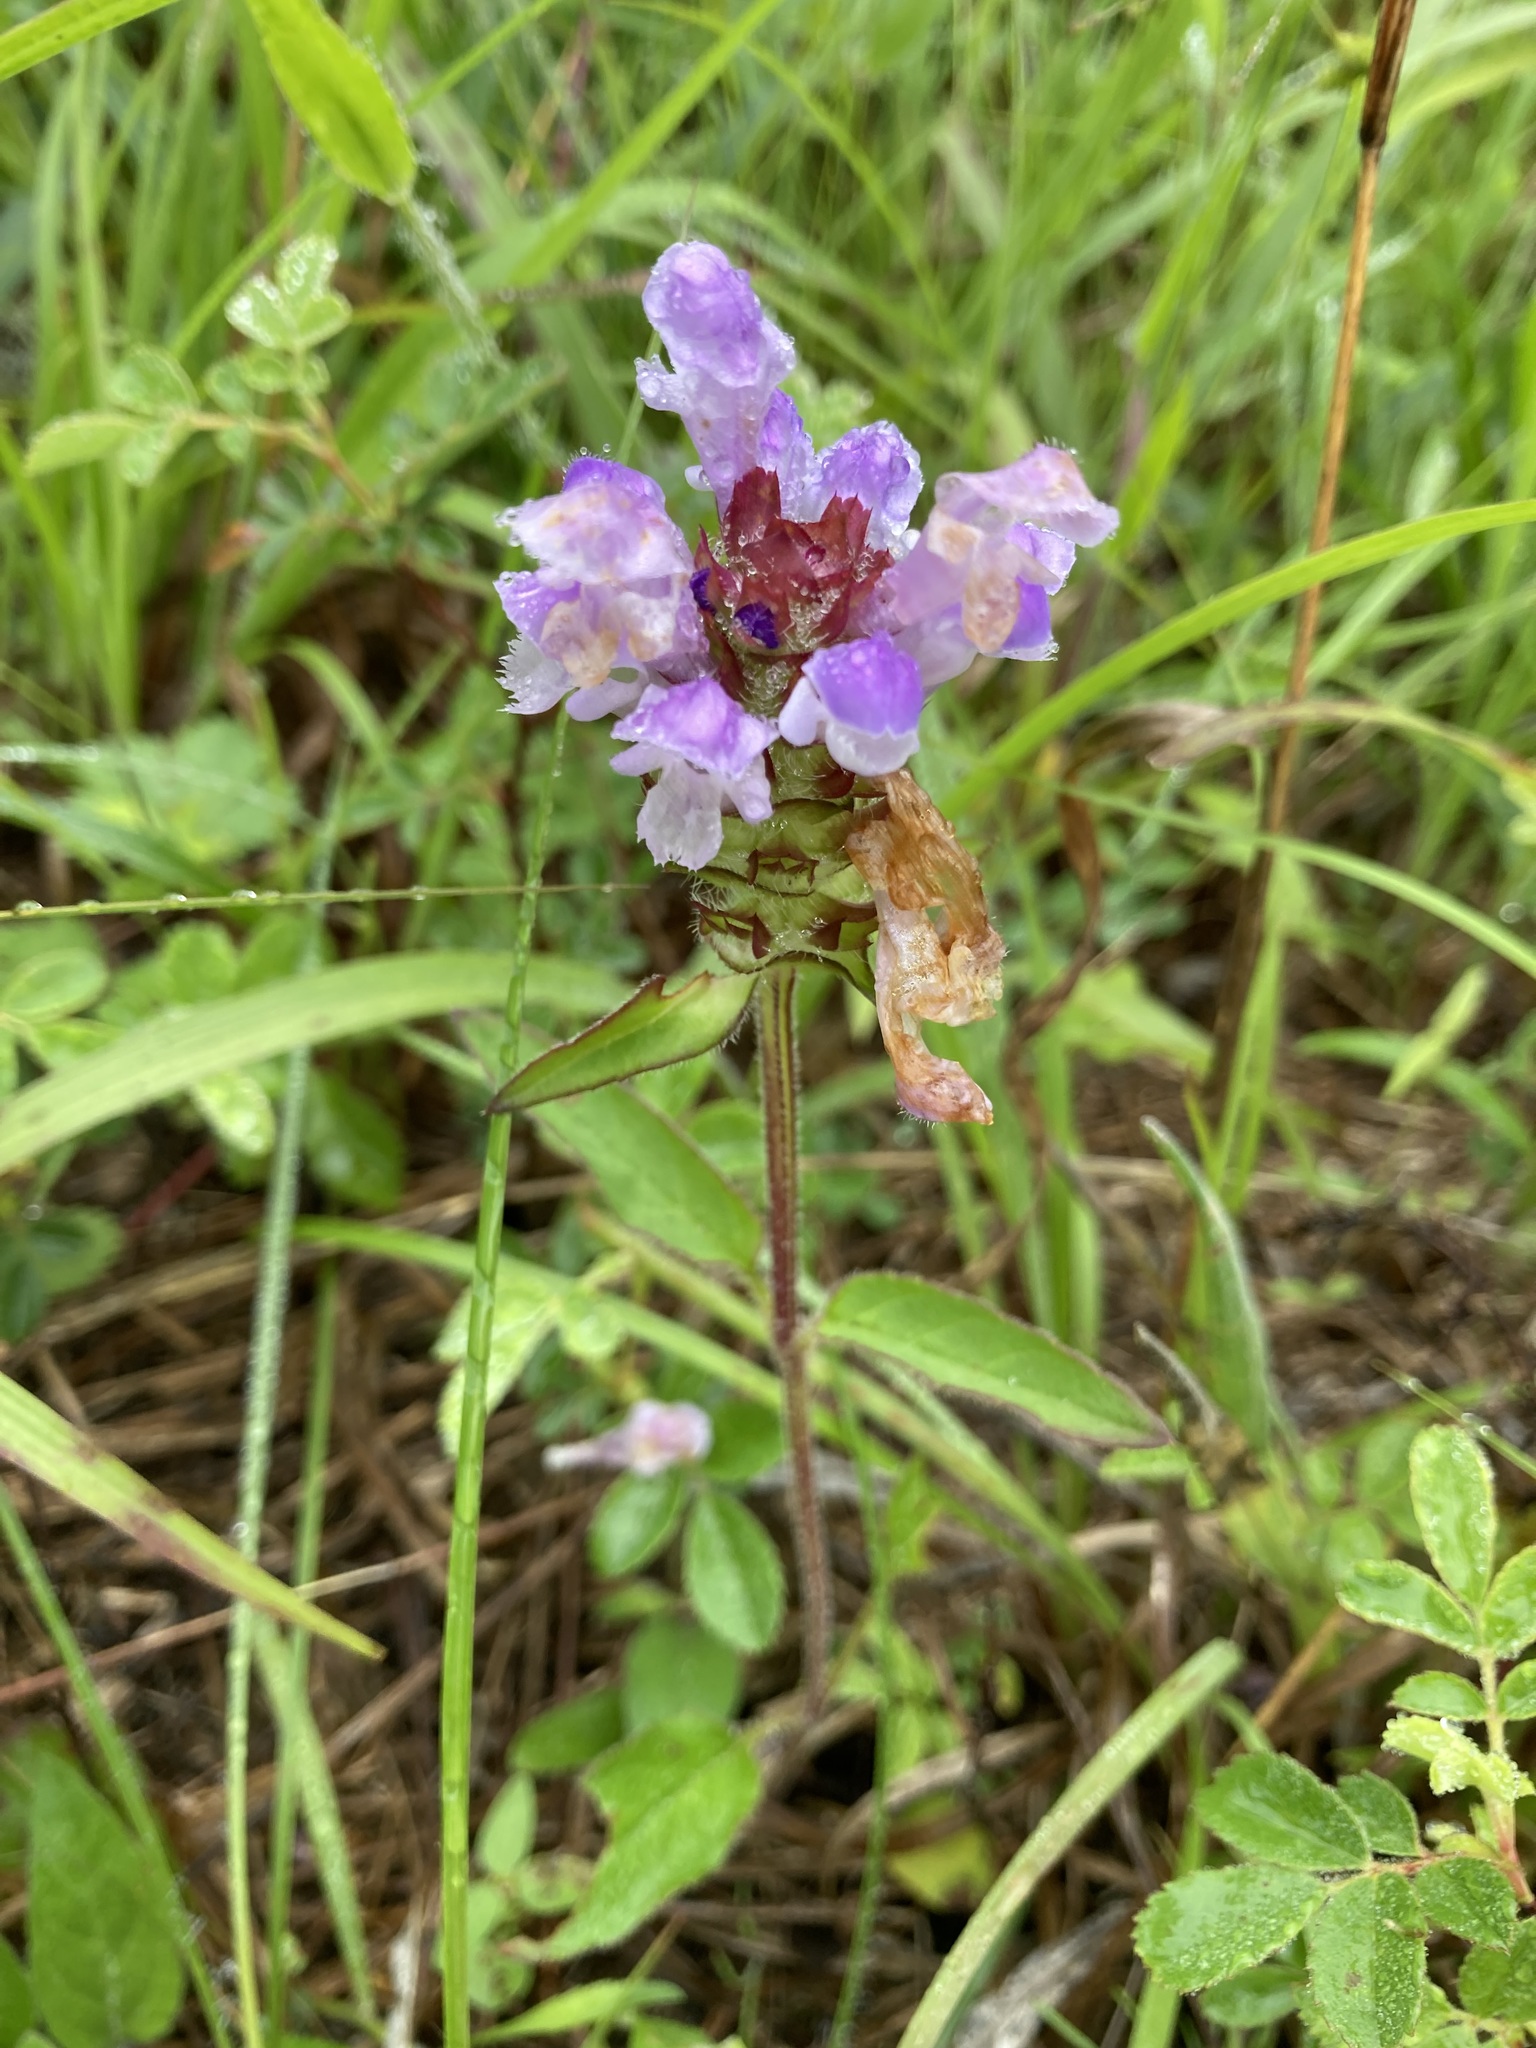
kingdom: Plantae
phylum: Tracheophyta
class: Magnoliopsida
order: Lamiales
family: Lamiaceae
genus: Prunella
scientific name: Prunella vulgaris
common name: Heal-all
